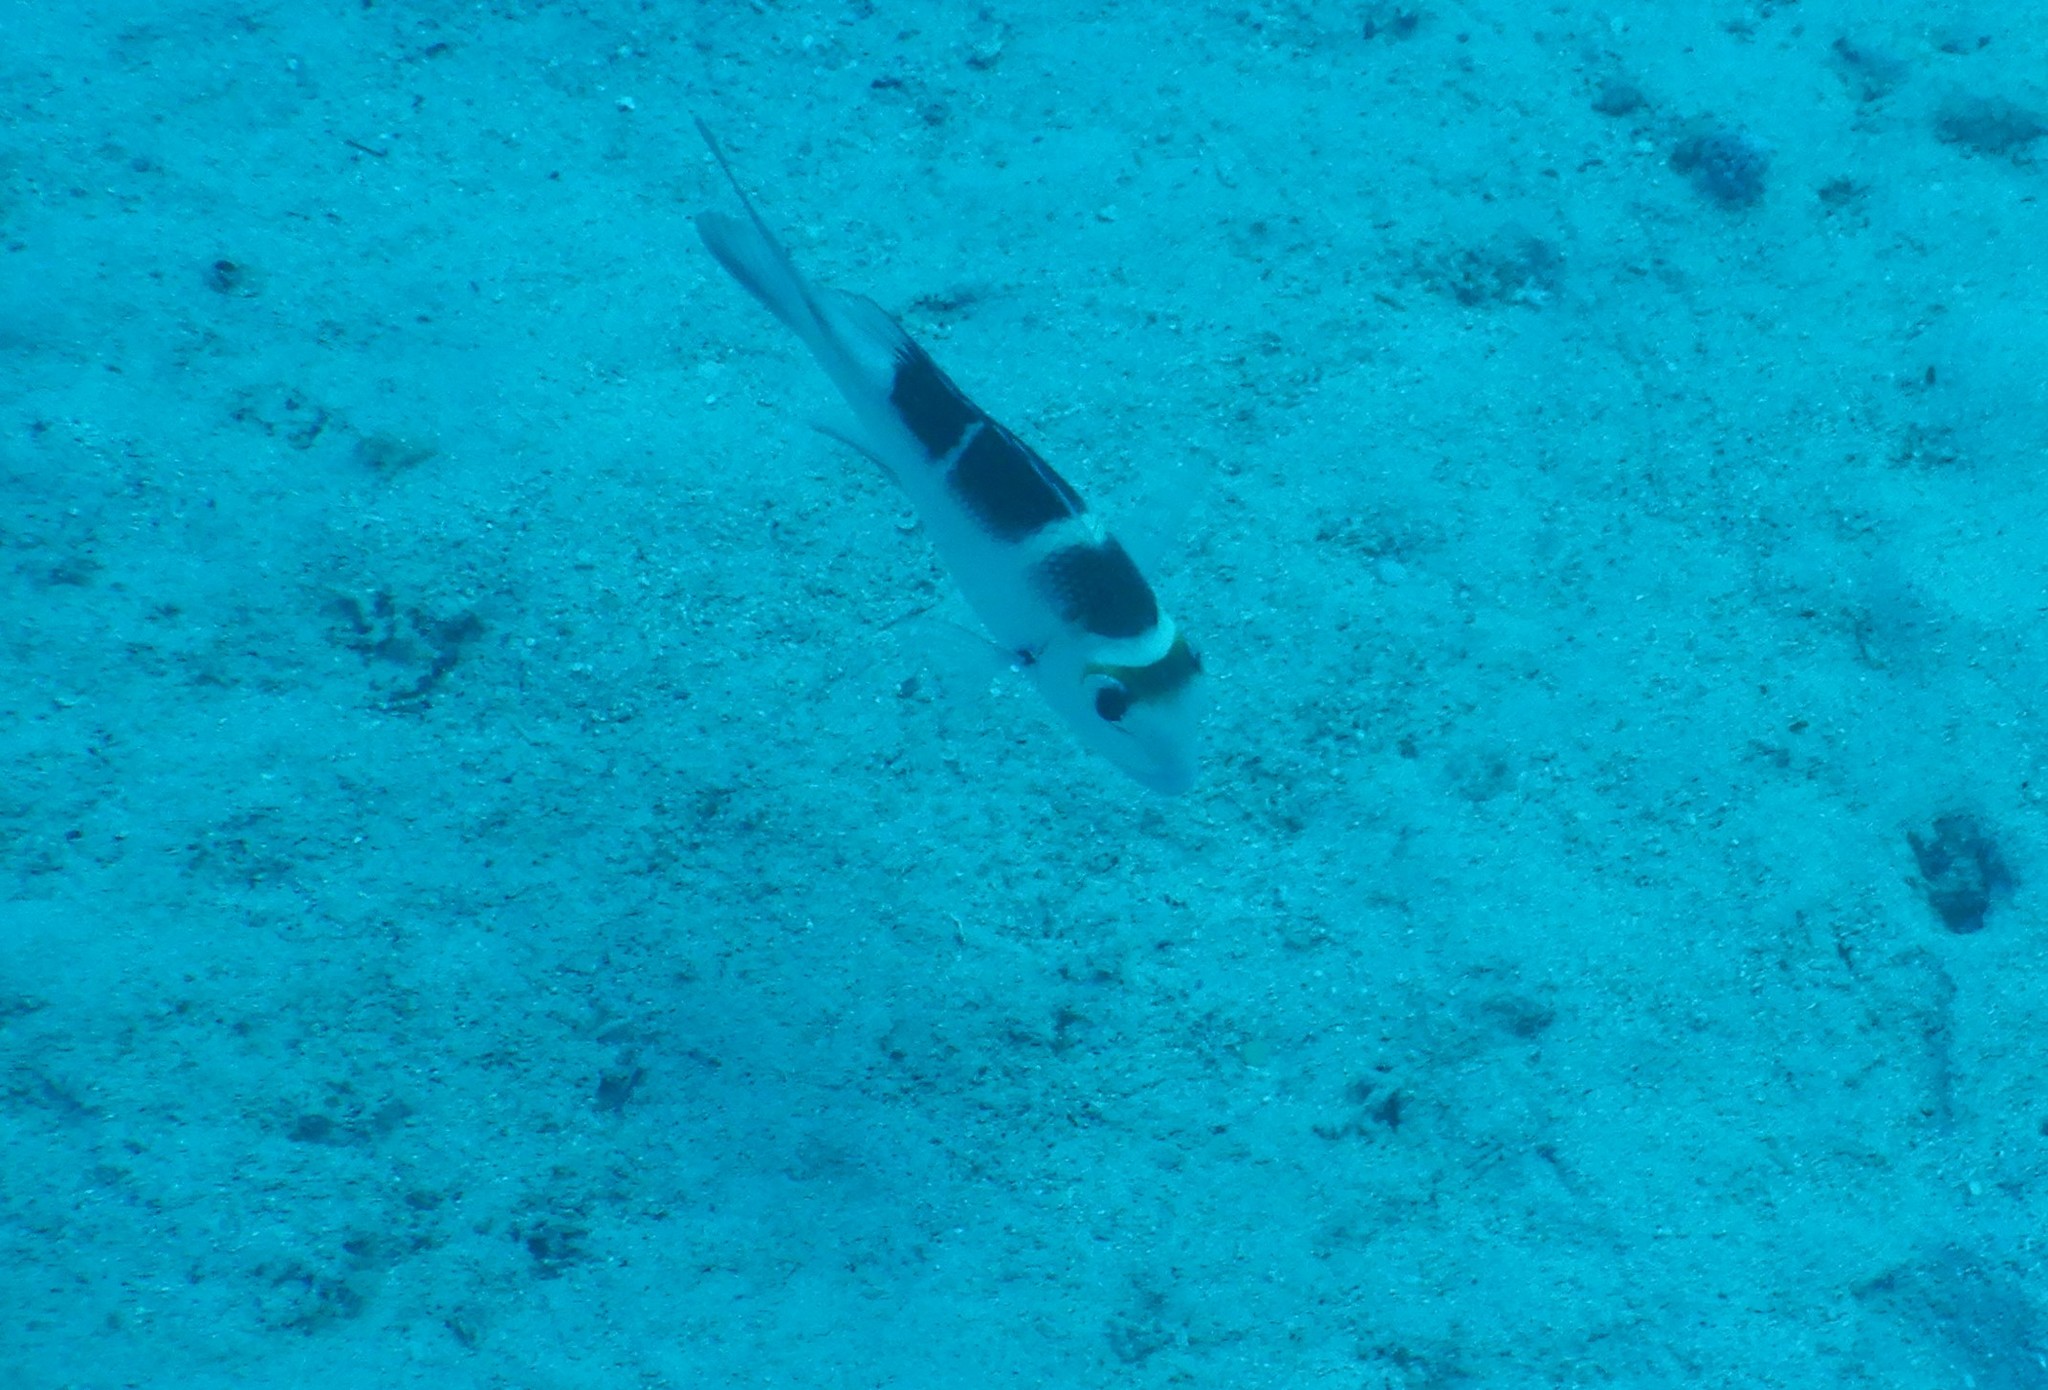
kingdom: Animalia
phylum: Chordata
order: Perciformes
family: Lethrinidae
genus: Monotaxis
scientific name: Monotaxis grandoculis
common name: Bigeye emperor
